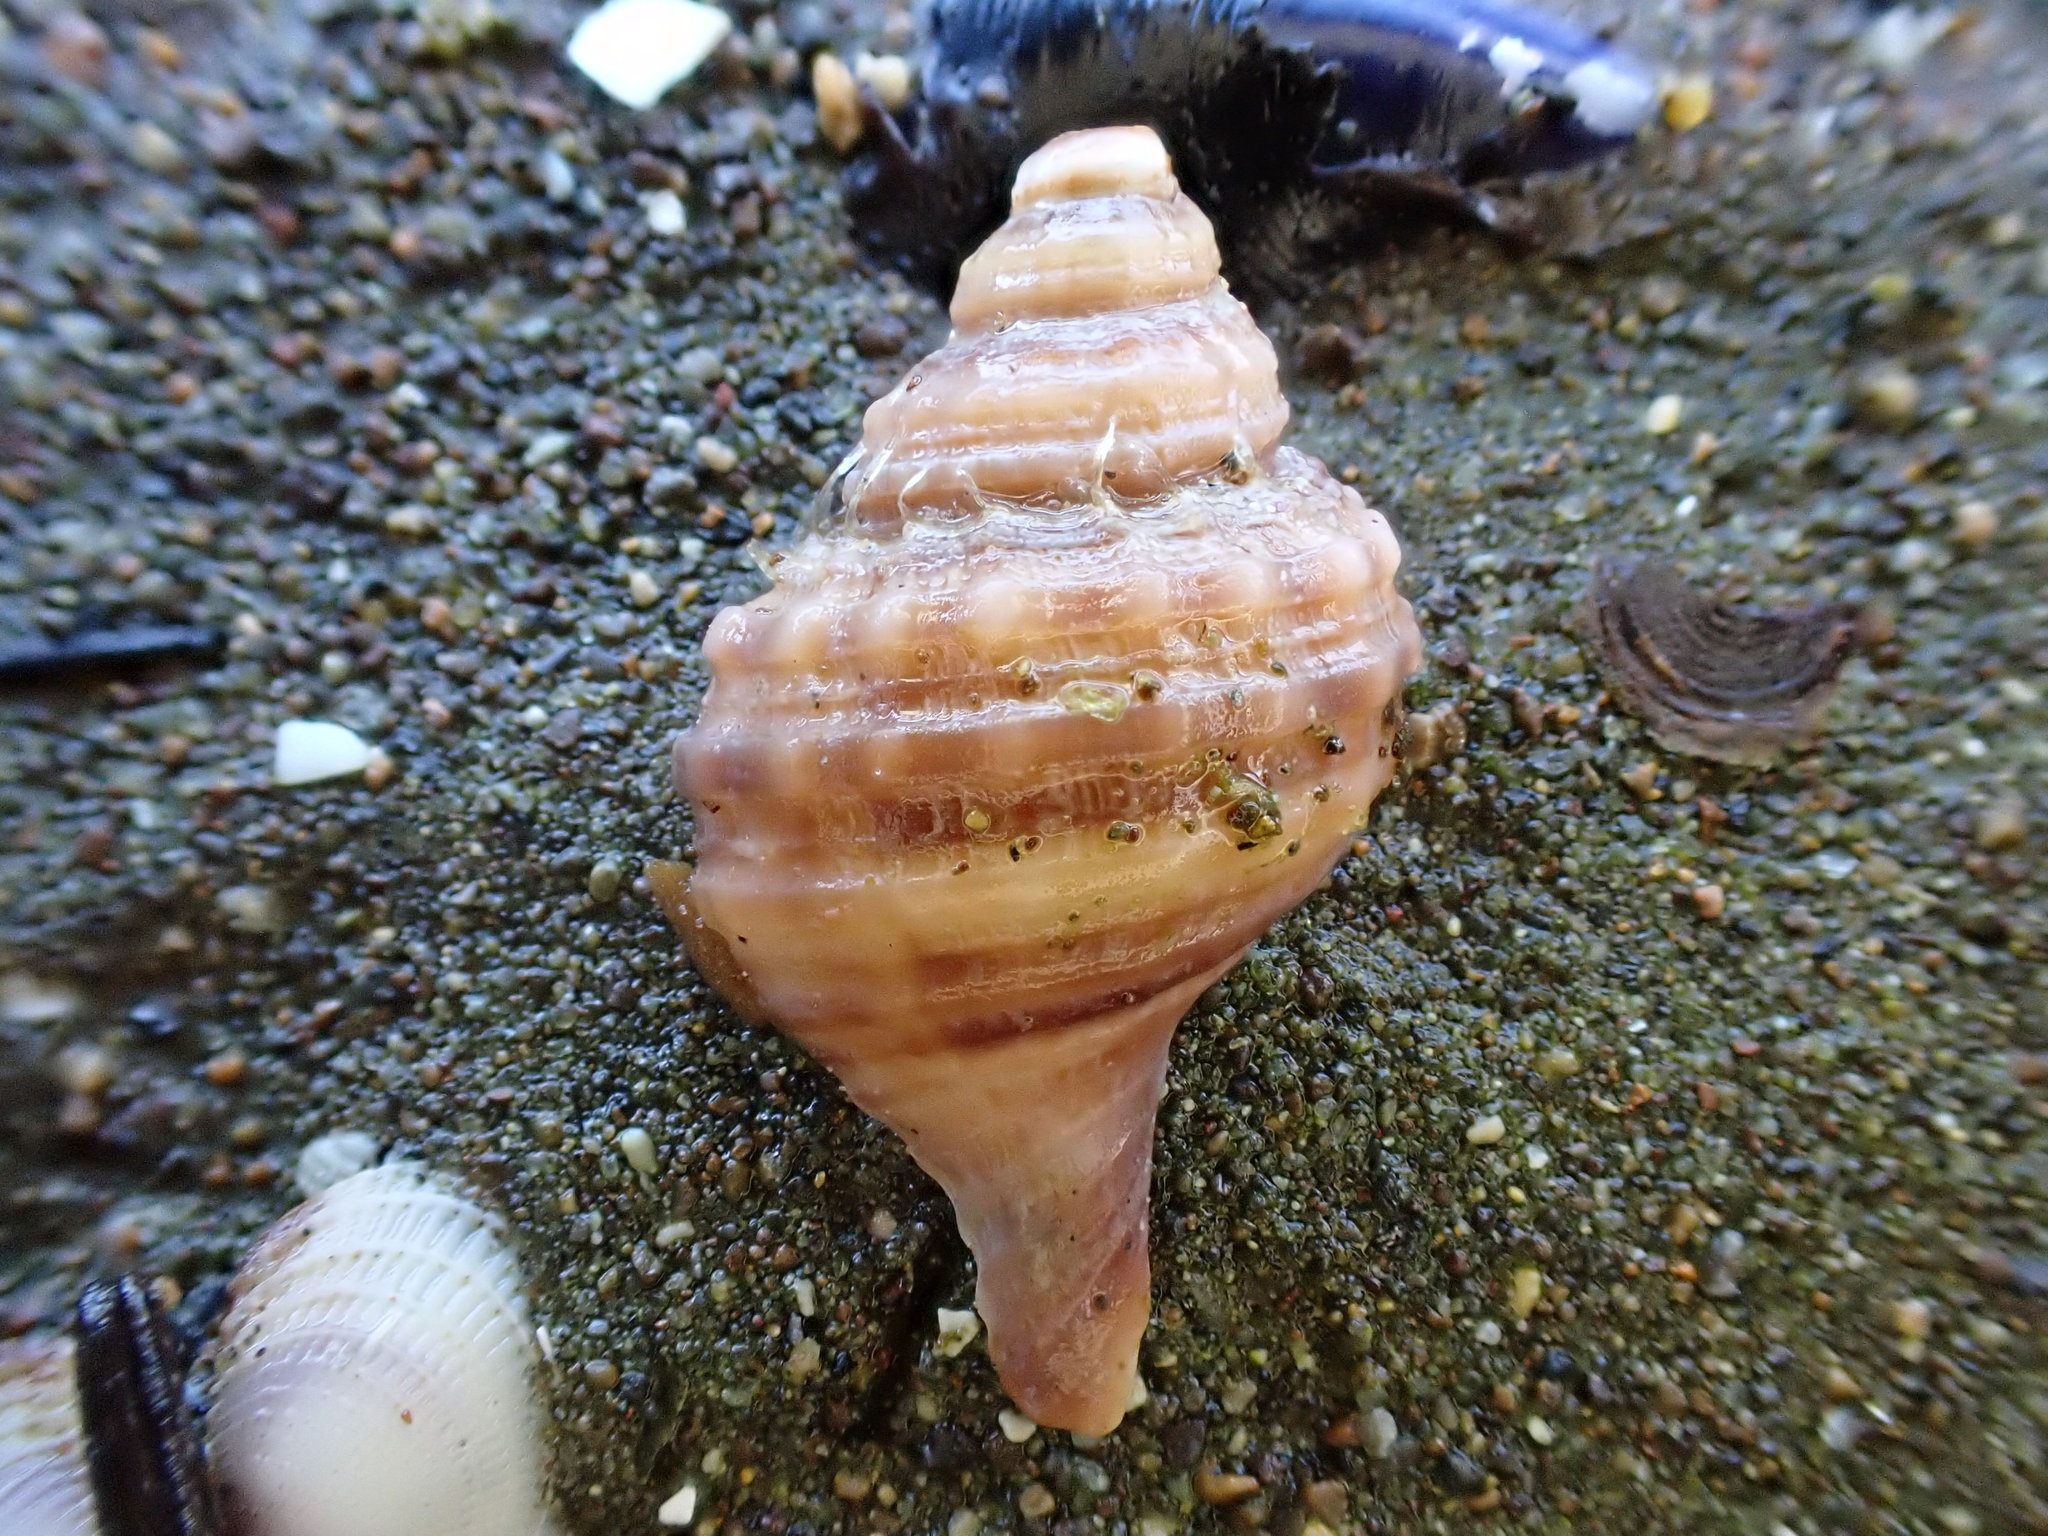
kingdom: Animalia
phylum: Mollusca
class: Gastropoda
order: Littorinimorpha
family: Cymatiidae
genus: Monoplex
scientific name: Monoplex parthenopeus
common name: Giant triton
